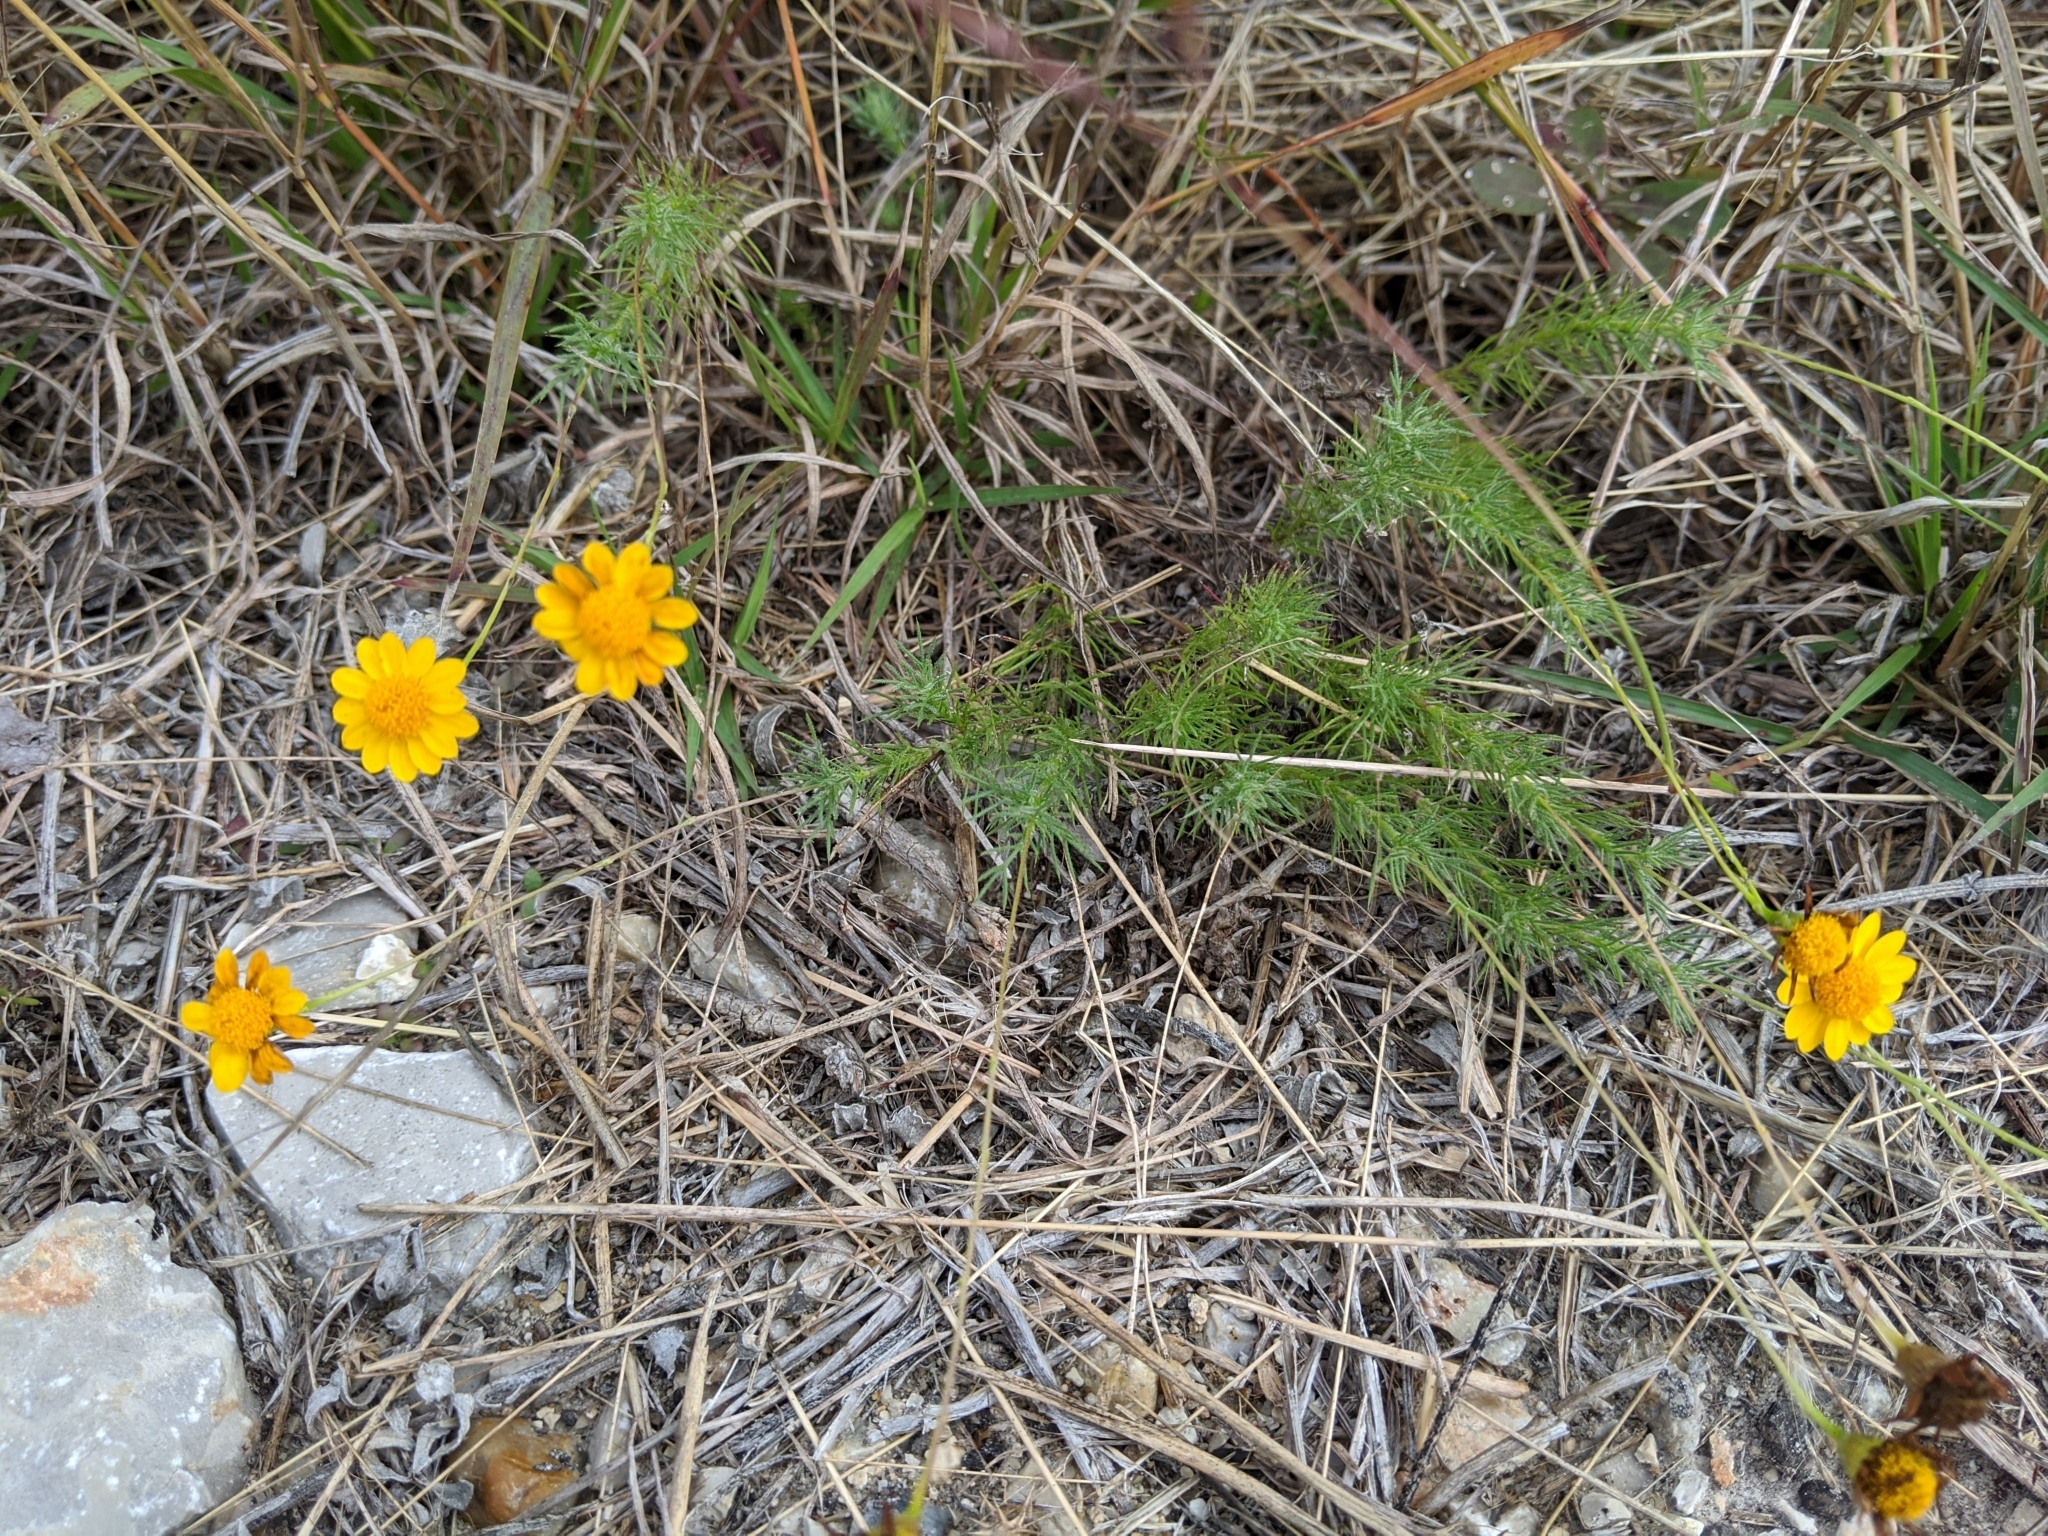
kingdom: Plantae
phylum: Tracheophyta
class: Magnoliopsida
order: Asterales
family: Asteraceae
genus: Thymophylla
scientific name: Thymophylla pentachaeta
